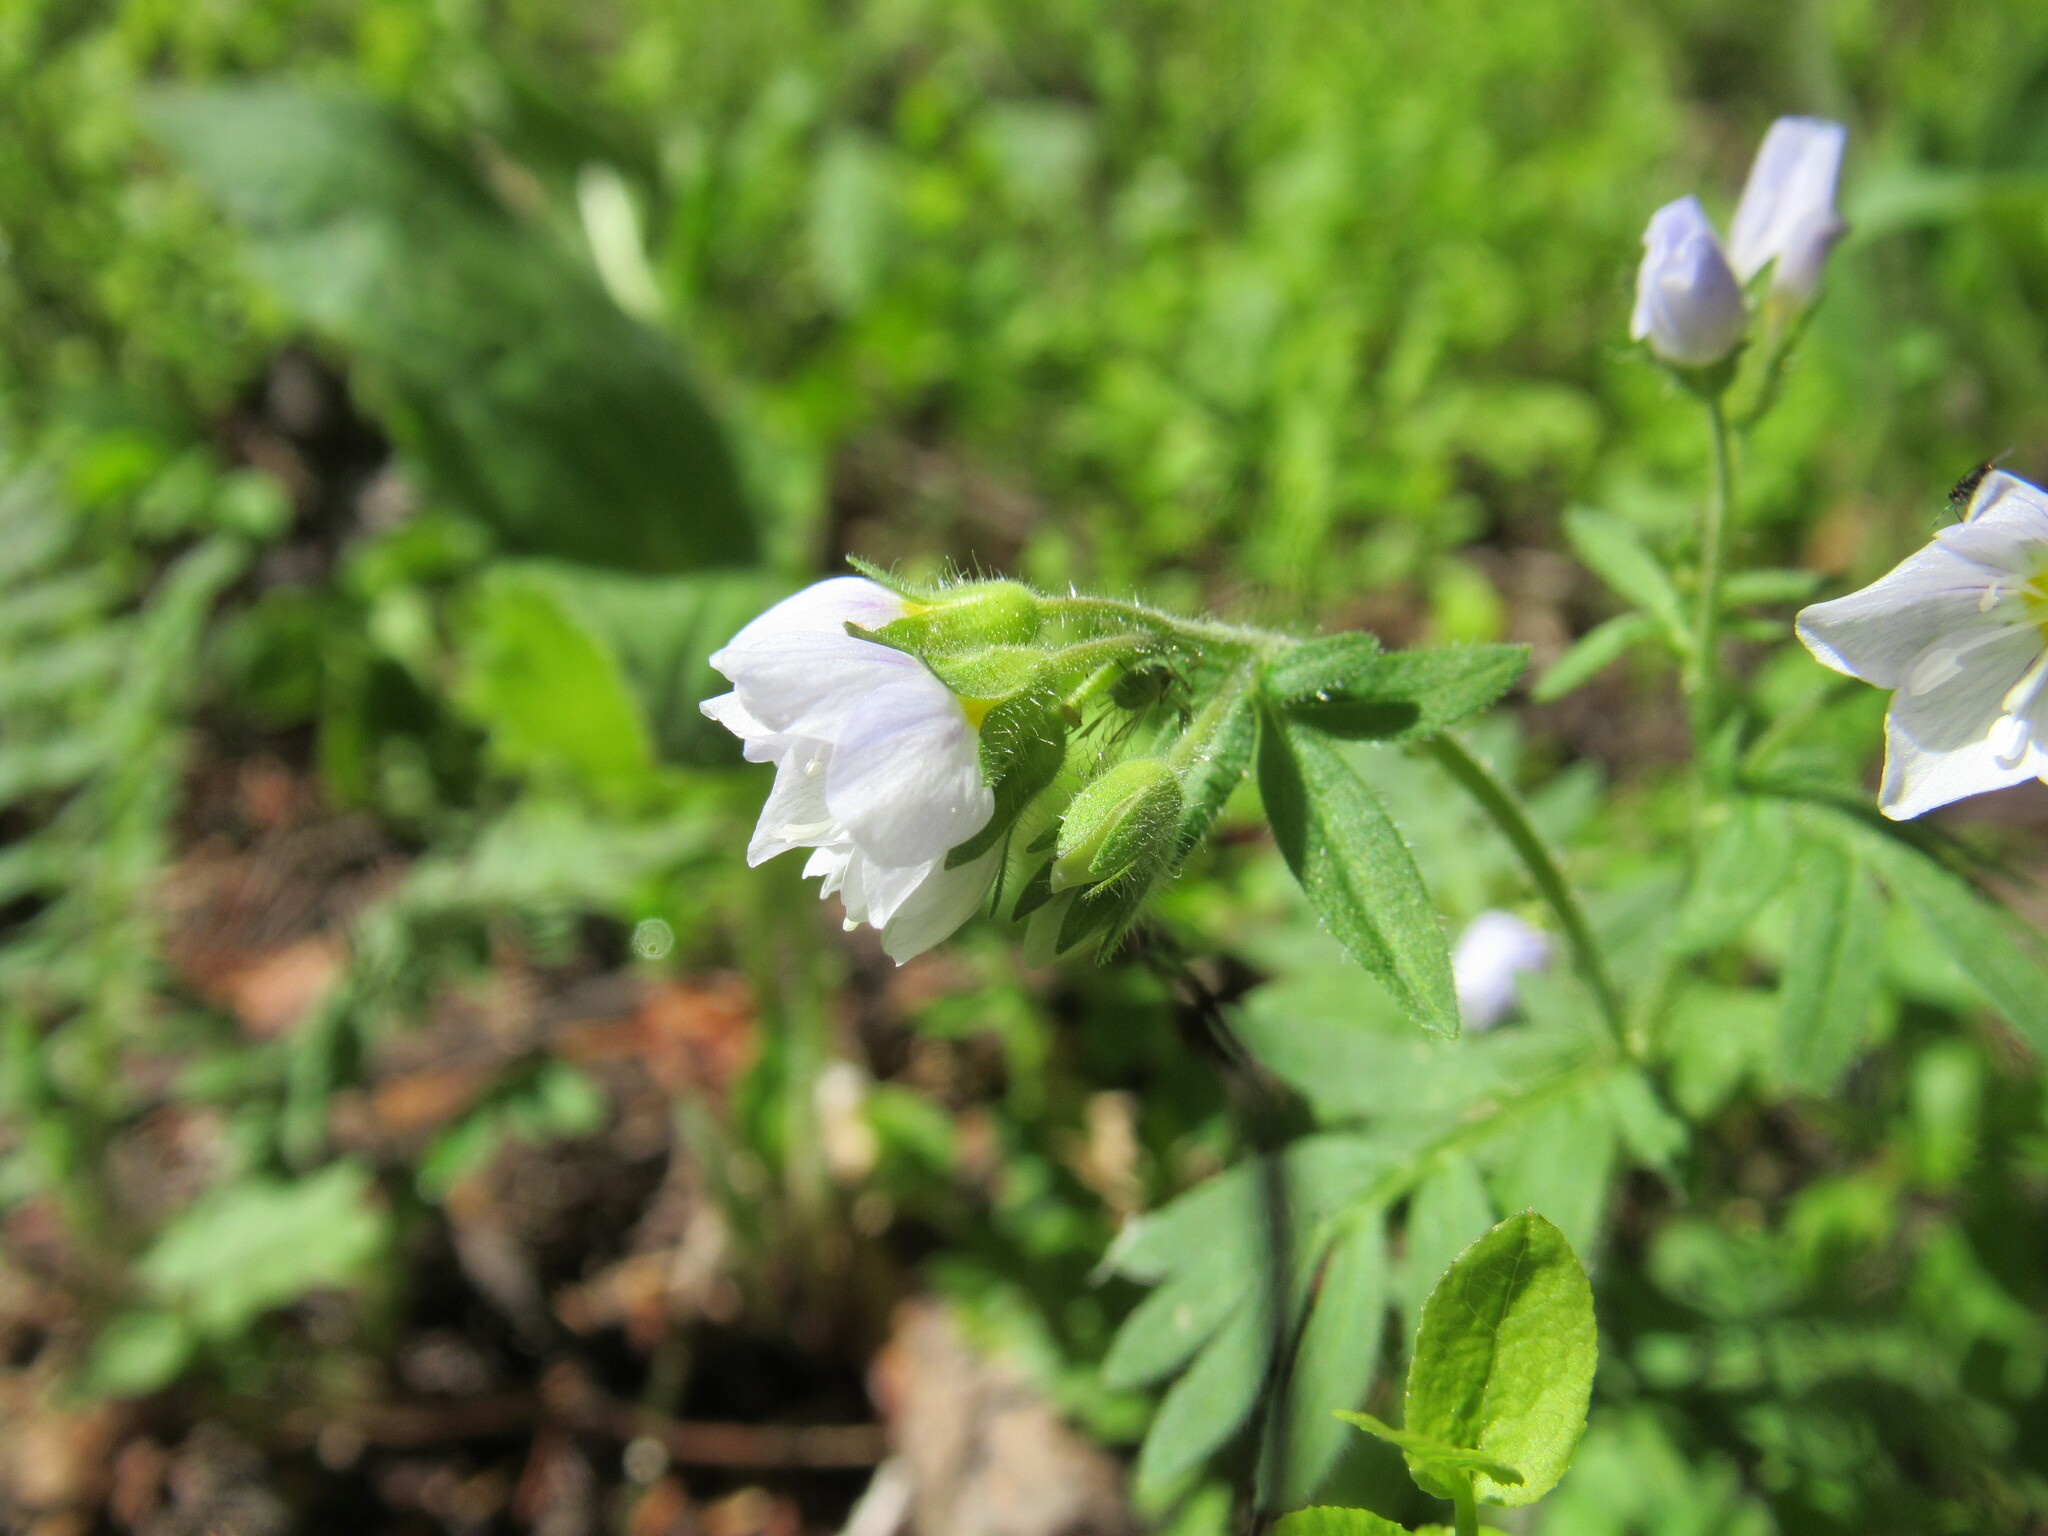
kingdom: Plantae
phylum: Tracheophyta
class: Magnoliopsida
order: Ericales
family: Polemoniaceae
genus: Polemonium
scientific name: Polemonium pulcherrimum
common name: Short jacob's-ladder
